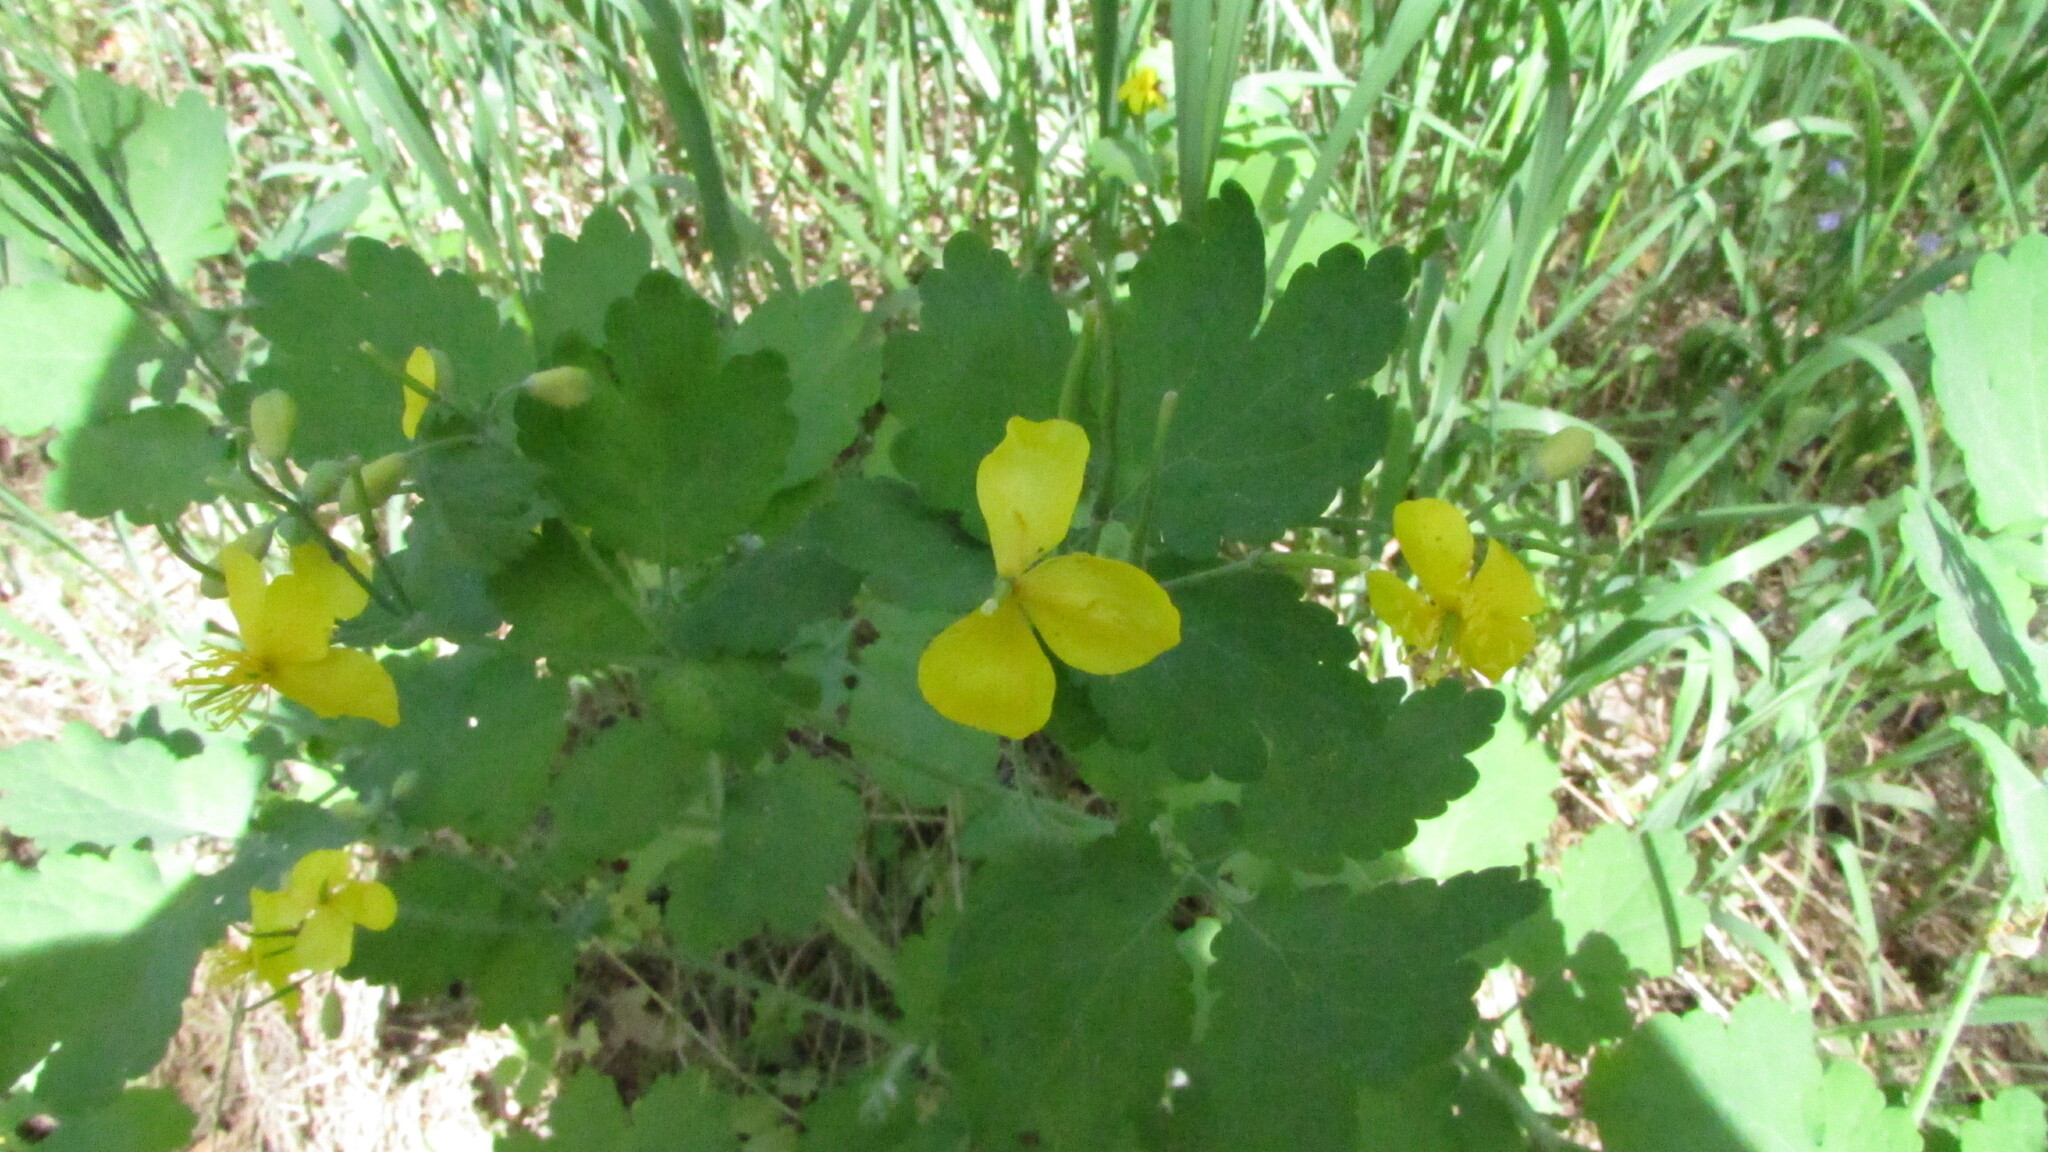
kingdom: Plantae
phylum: Tracheophyta
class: Magnoliopsida
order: Ranunculales
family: Papaveraceae
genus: Chelidonium
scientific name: Chelidonium majus
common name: Greater celandine
